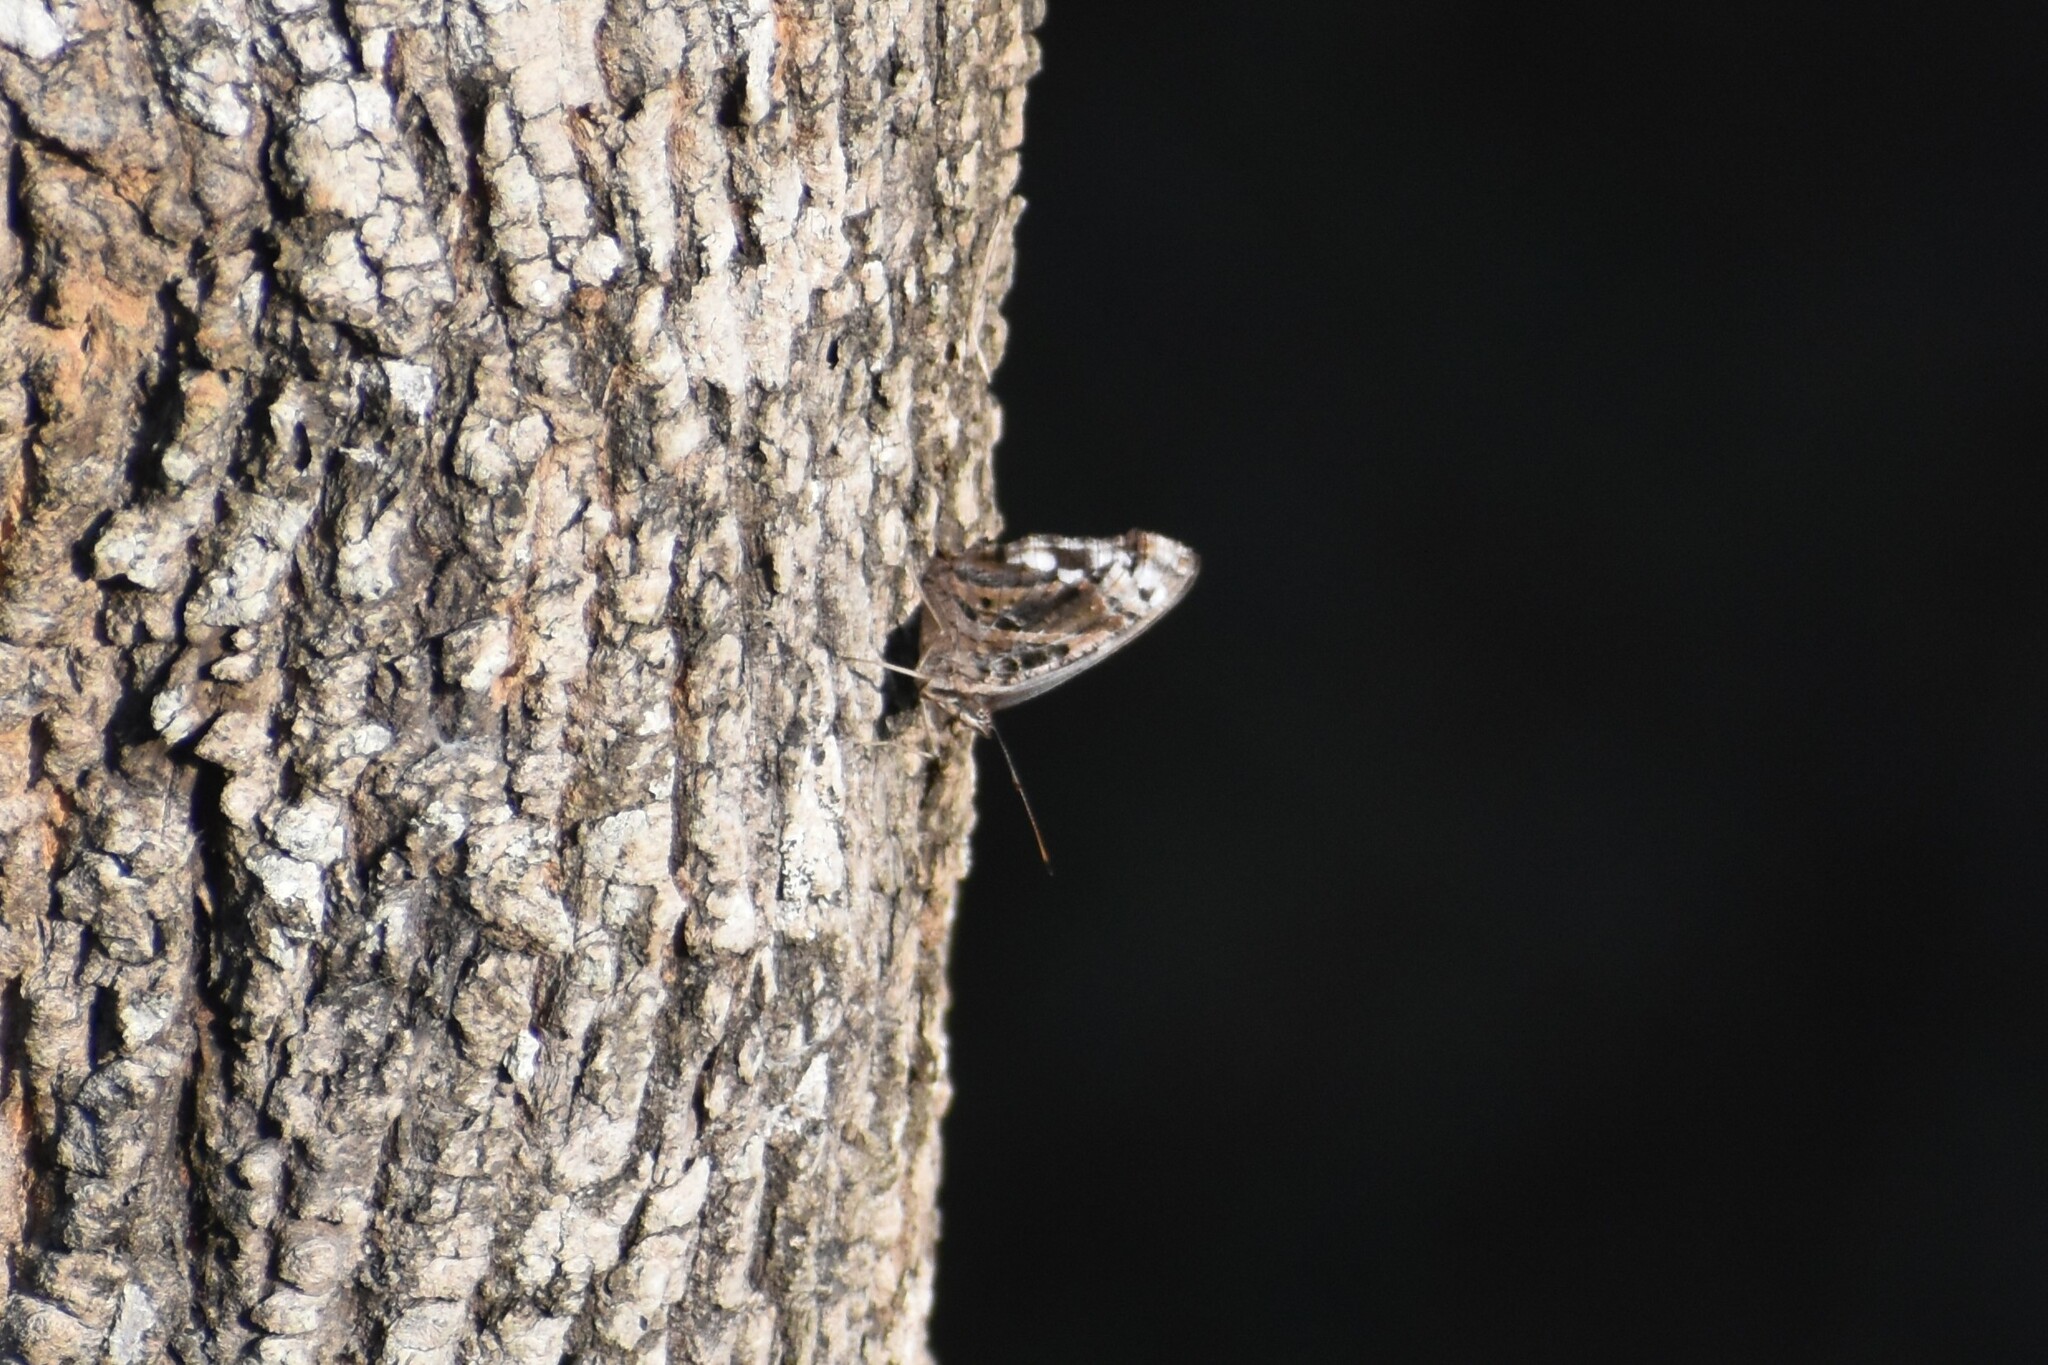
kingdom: Animalia
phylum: Arthropoda
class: Insecta
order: Lepidoptera
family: Nymphalidae
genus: Myscelia
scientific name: Myscelia ethusa
